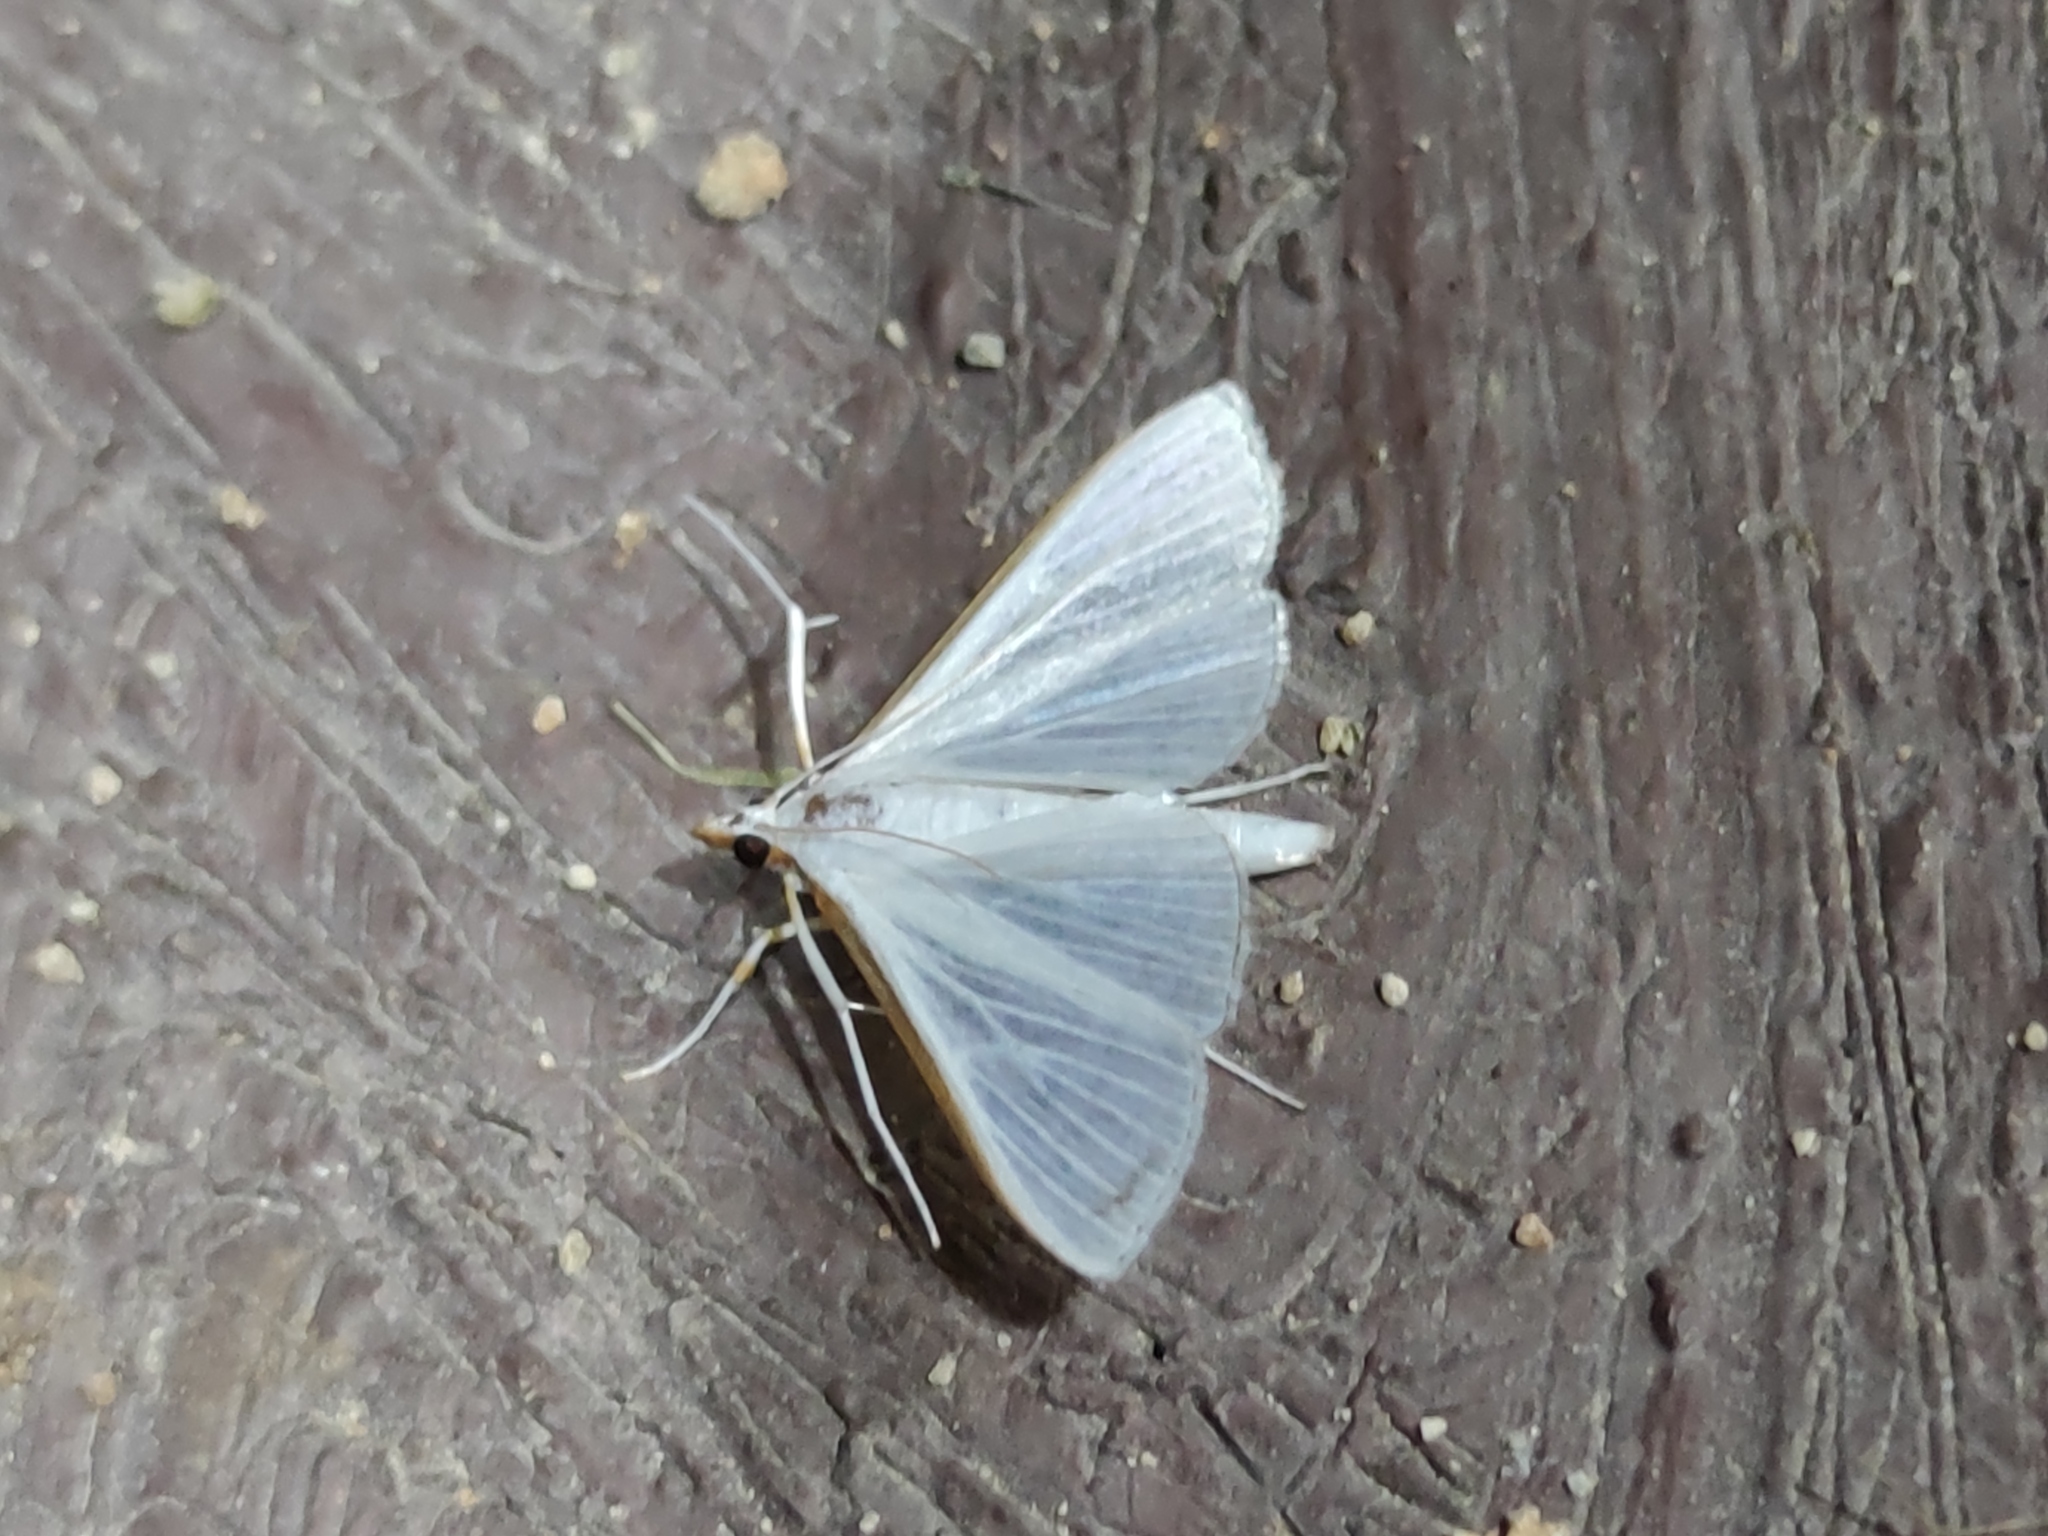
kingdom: Animalia
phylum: Arthropoda
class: Insecta
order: Lepidoptera
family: Crambidae
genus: Diaphania
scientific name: Diaphania costata
